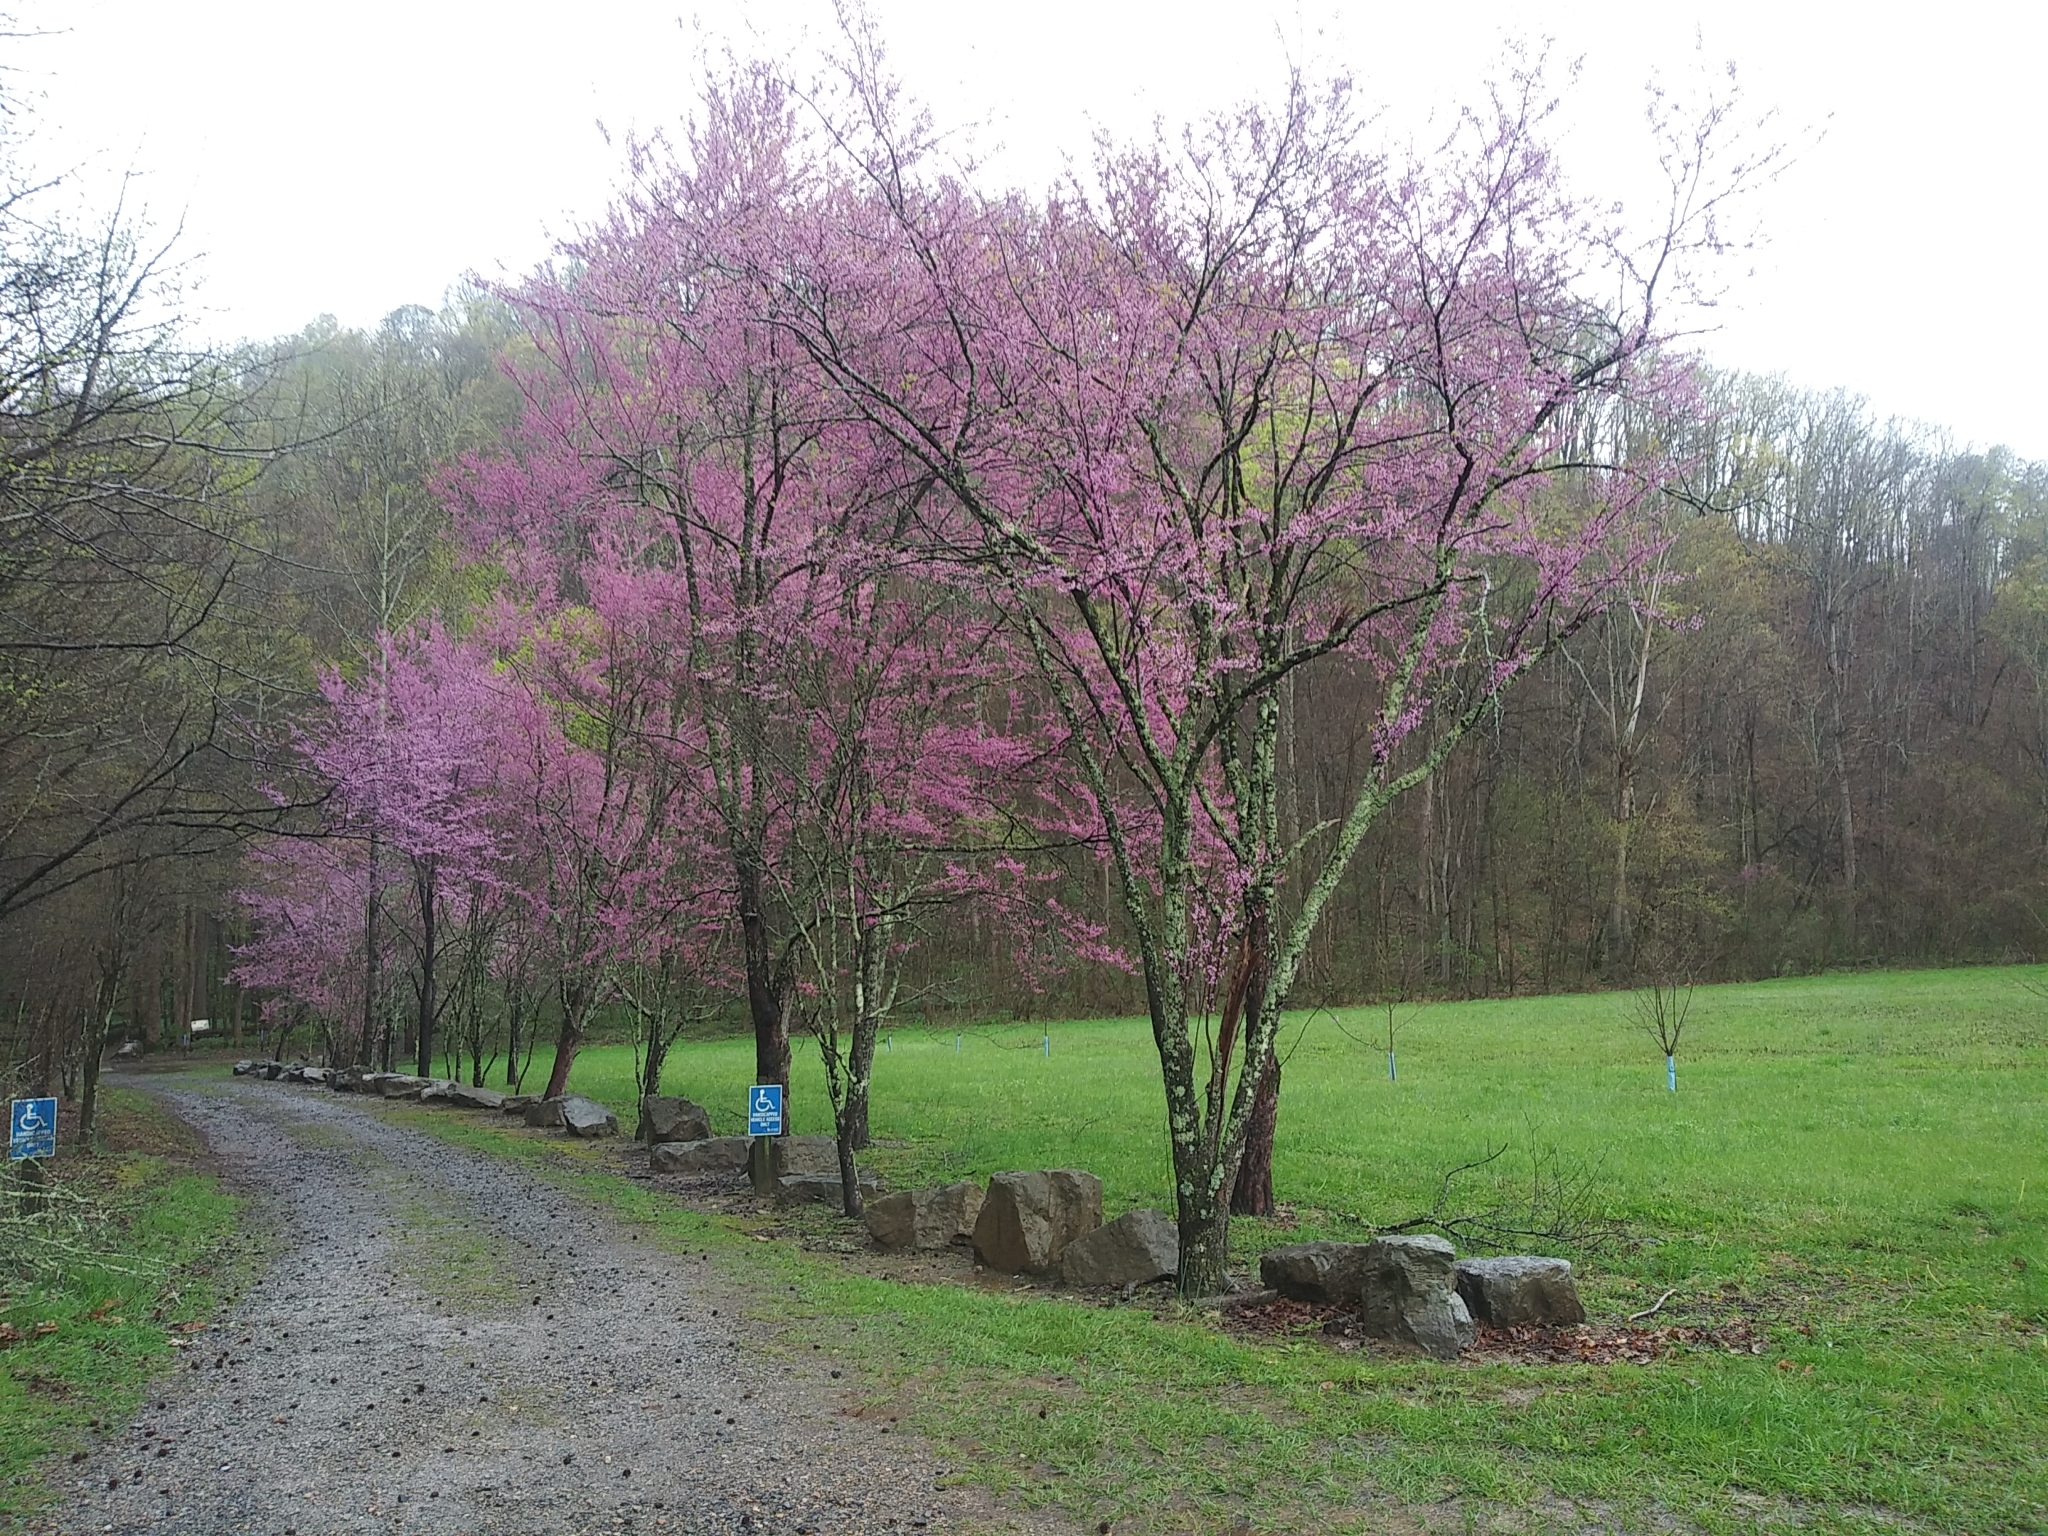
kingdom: Plantae
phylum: Tracheophyta
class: Magnoliopsida
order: Fabales
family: Fabaceae
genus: Cercis
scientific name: Cercis canadensis
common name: Eastern redbud
